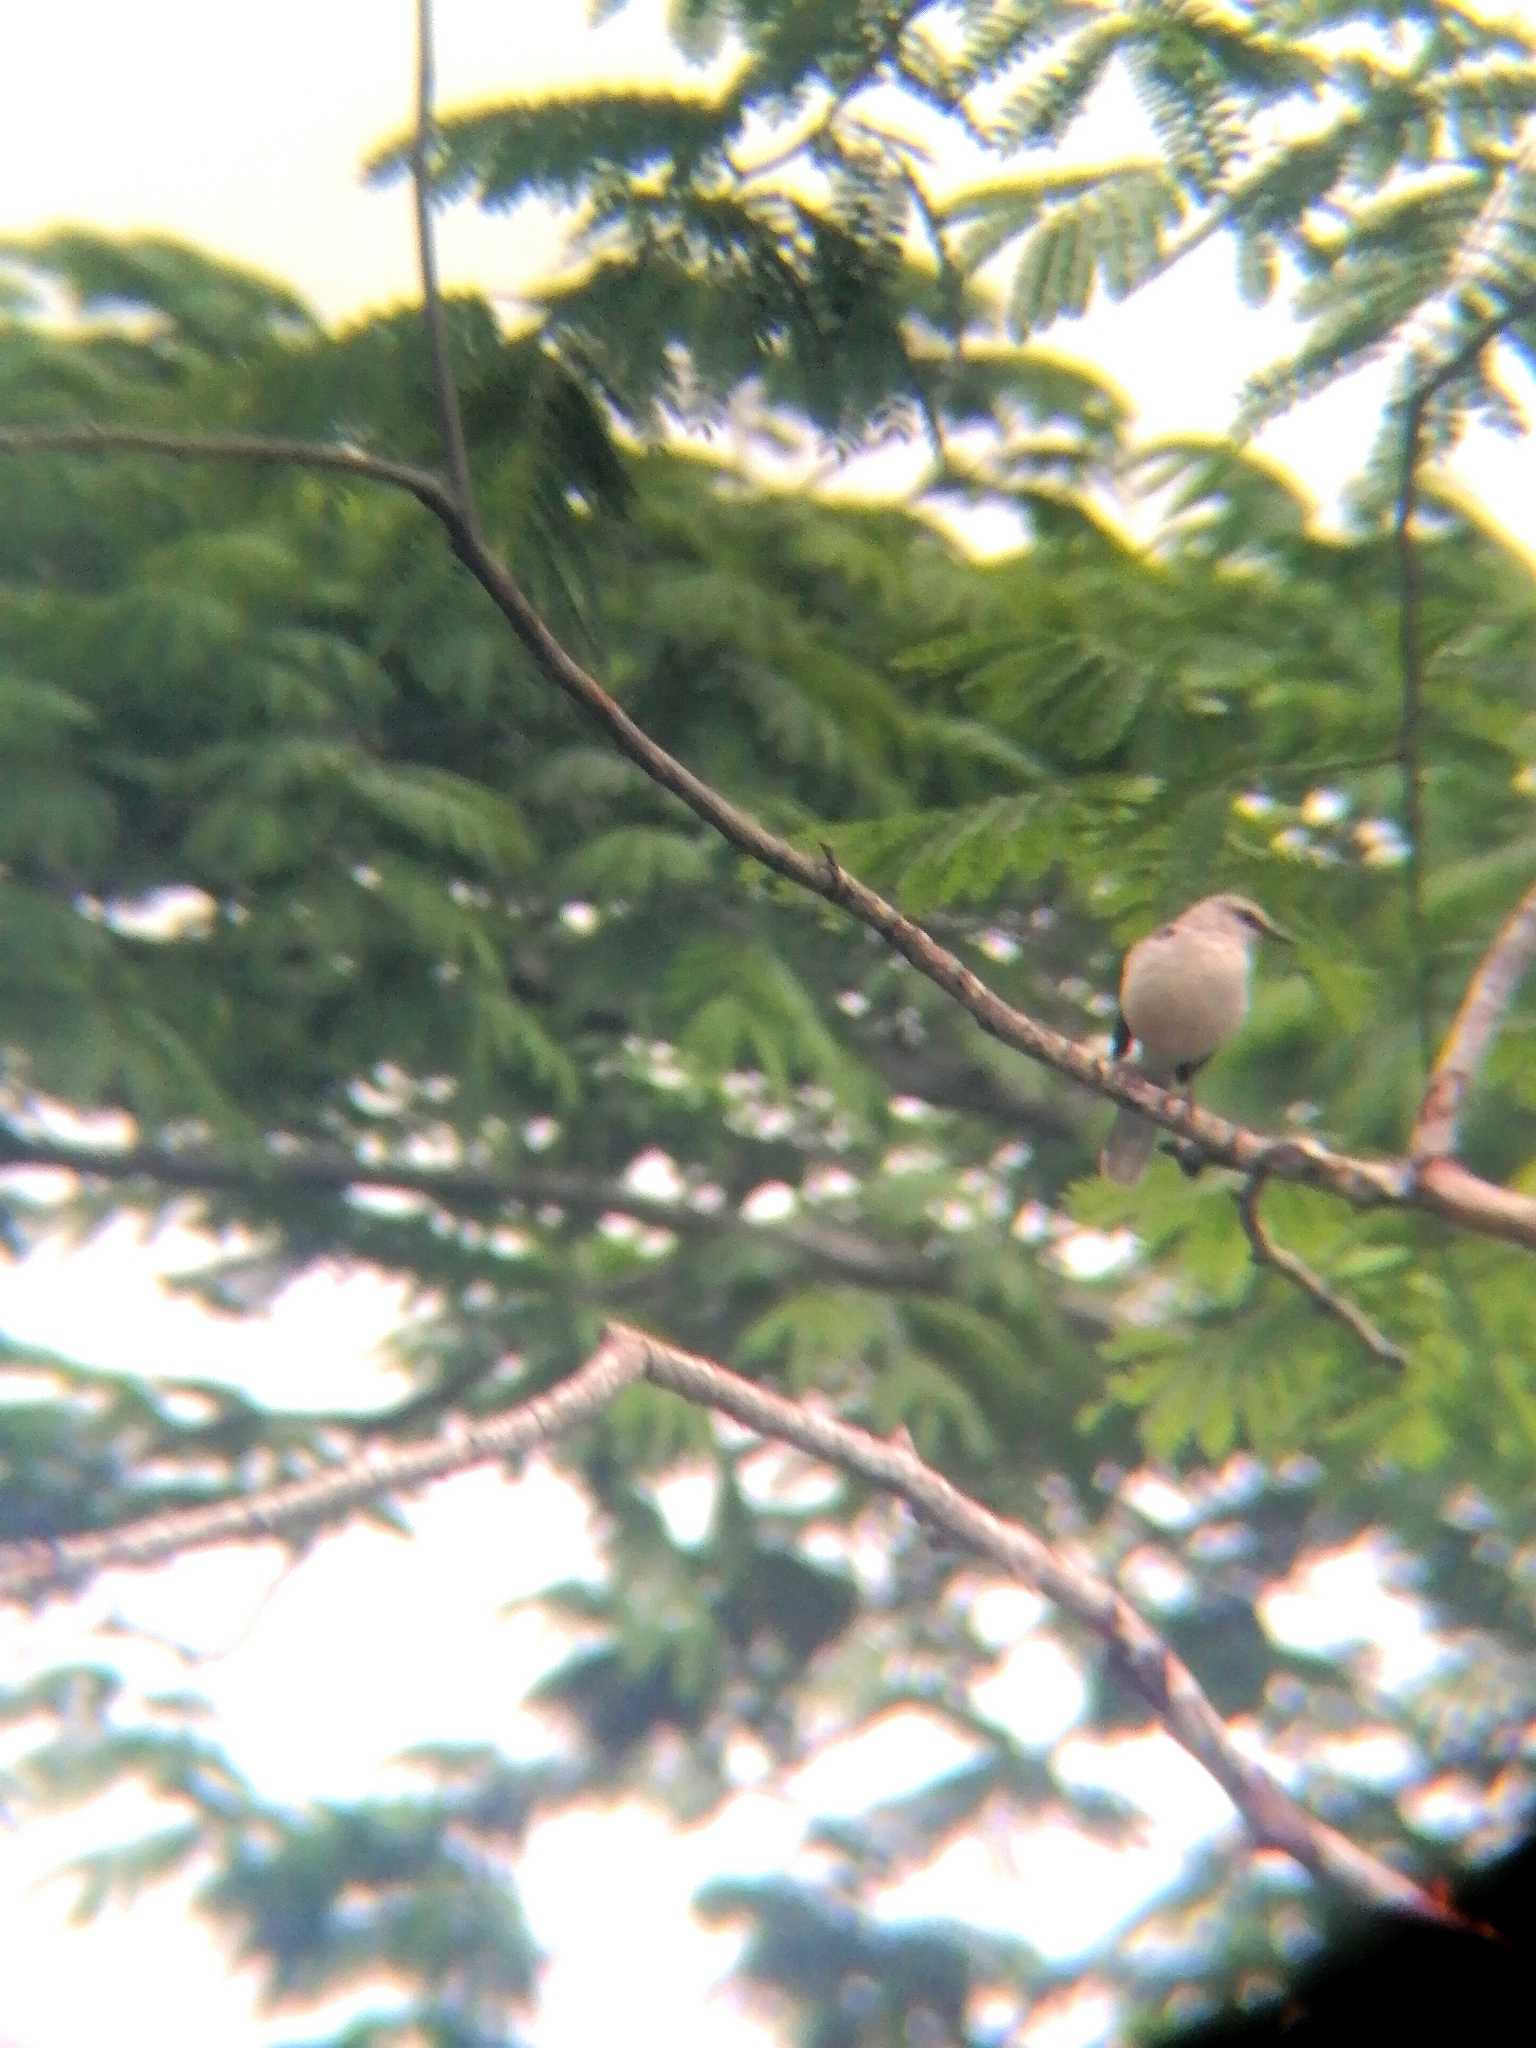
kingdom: Animalia
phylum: Chordata
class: Aves
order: Passeriformes
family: Mimidae
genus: Mimus
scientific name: Mimus gilvus
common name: Tropical mockingbird
